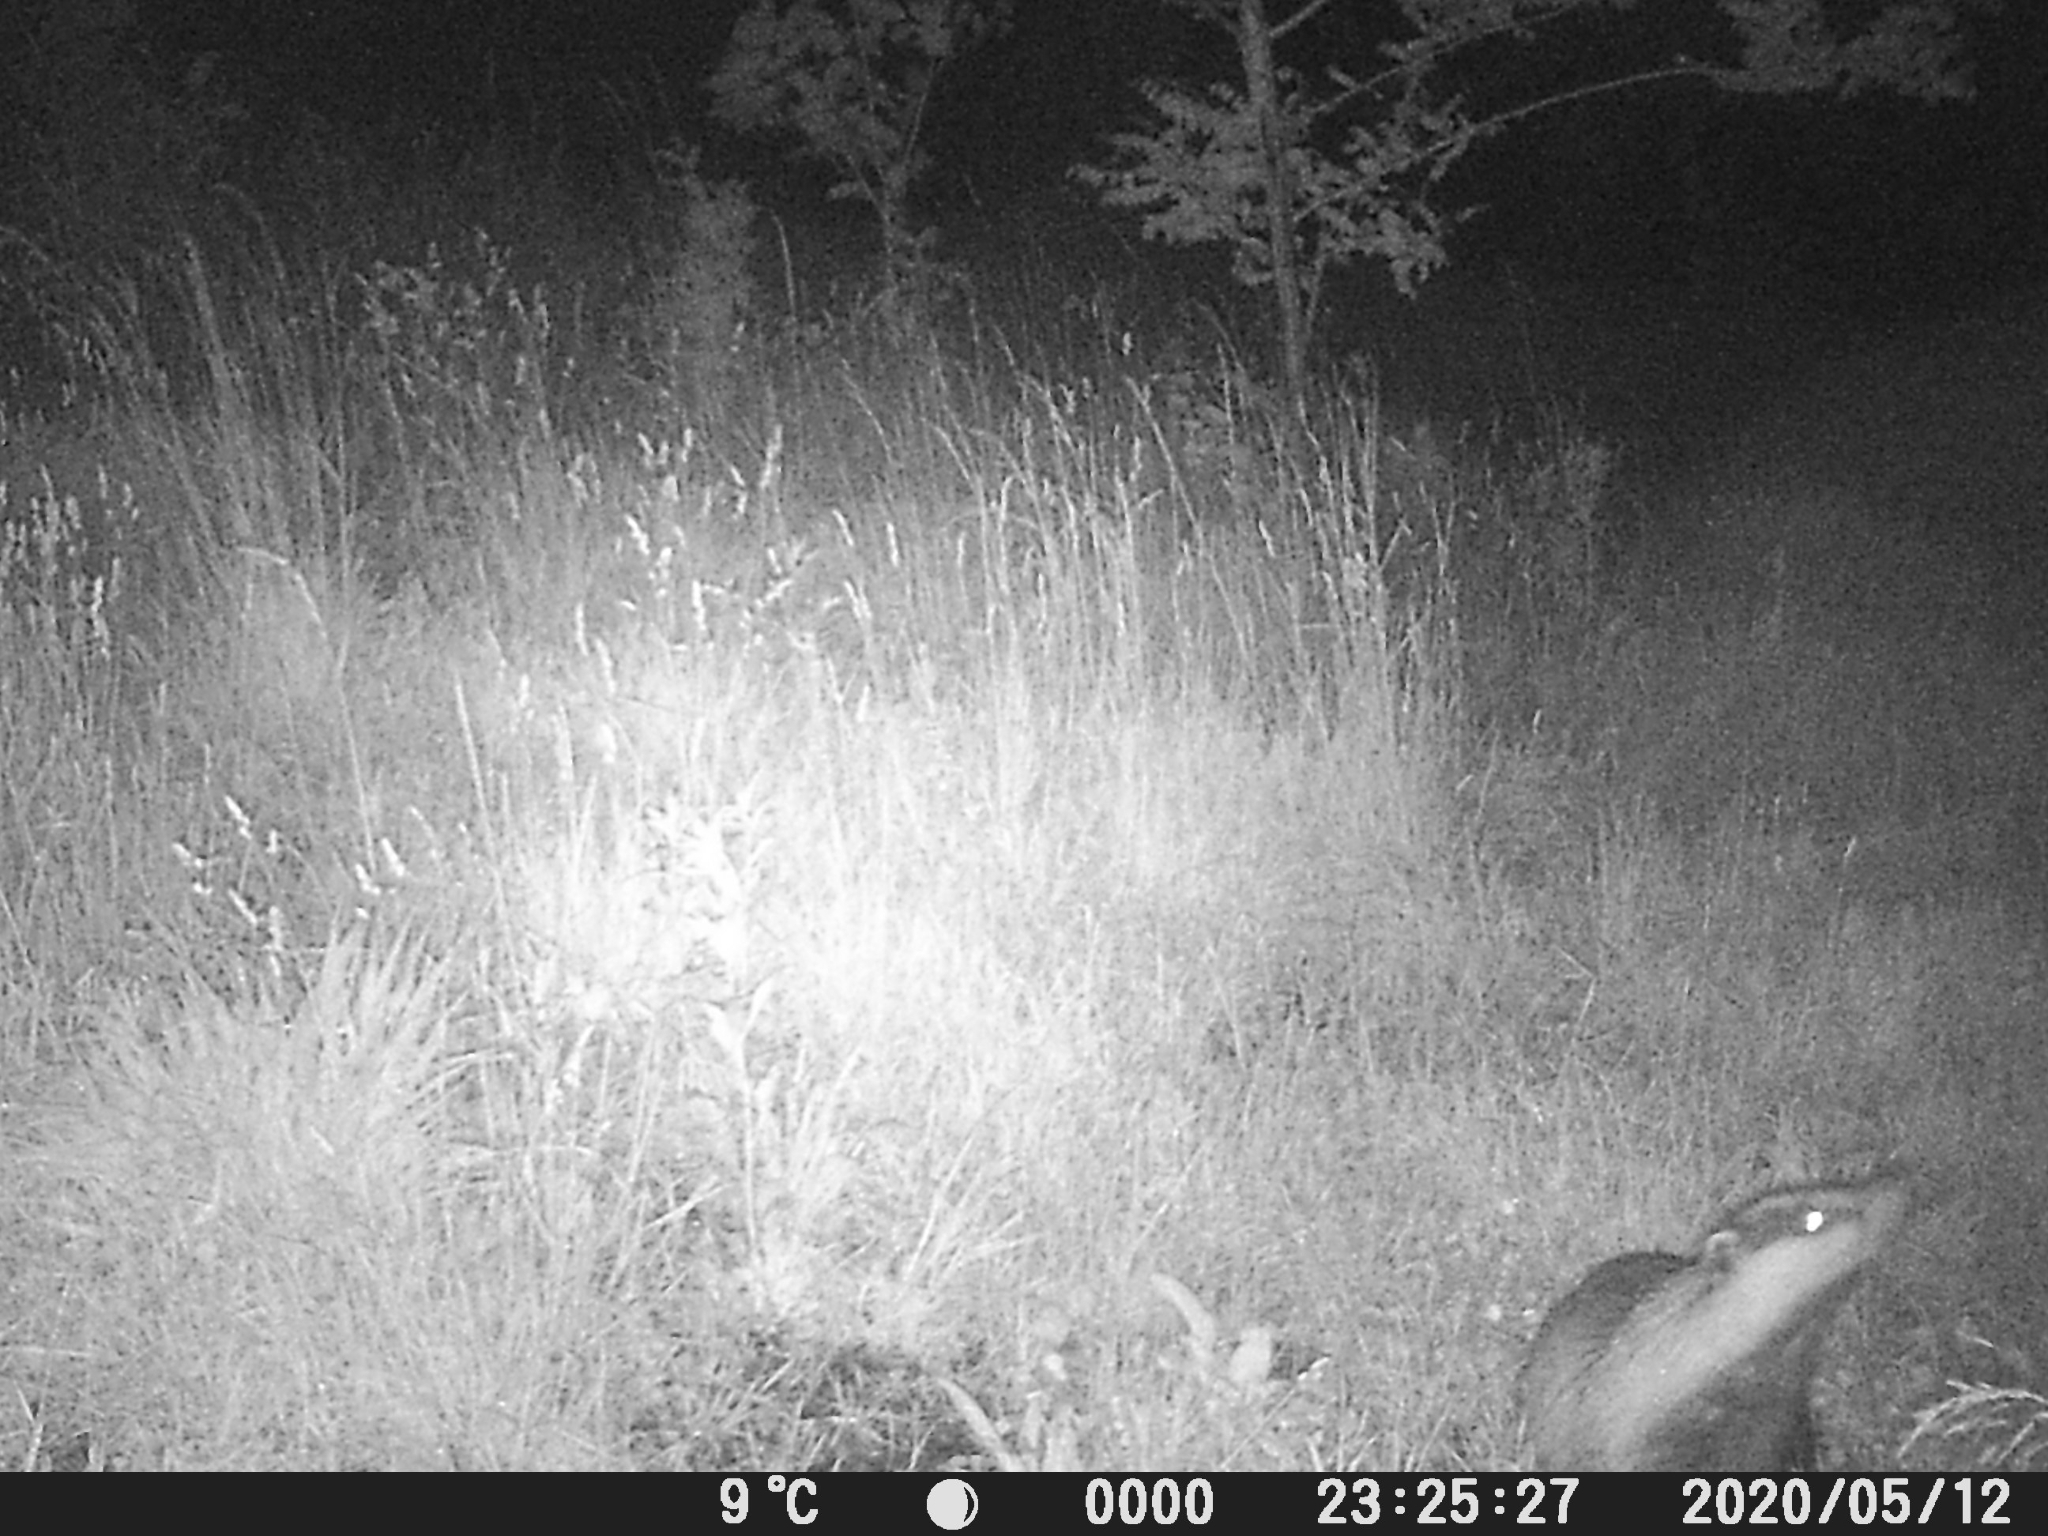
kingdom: Animalia
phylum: Chordata
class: Mammalia
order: Carnivora
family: Mustelidae
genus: Meles
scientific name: Meles meles
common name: Eurasian badger
